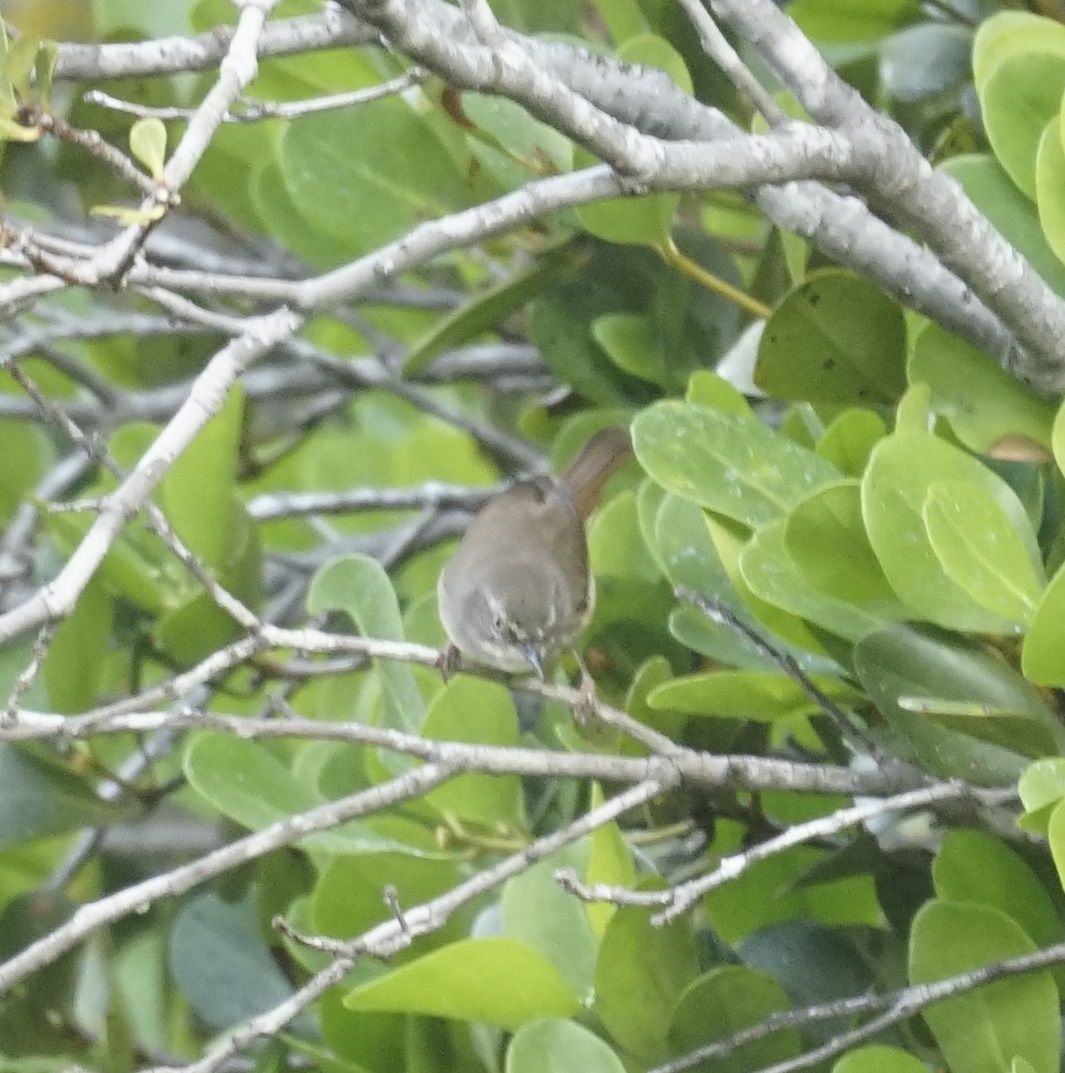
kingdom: Animalia
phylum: Chordata
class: Aves
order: Passeriformes
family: Acanthizidae
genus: Sericornis
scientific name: Sericornis frontalis
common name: White-browed scrubwren
